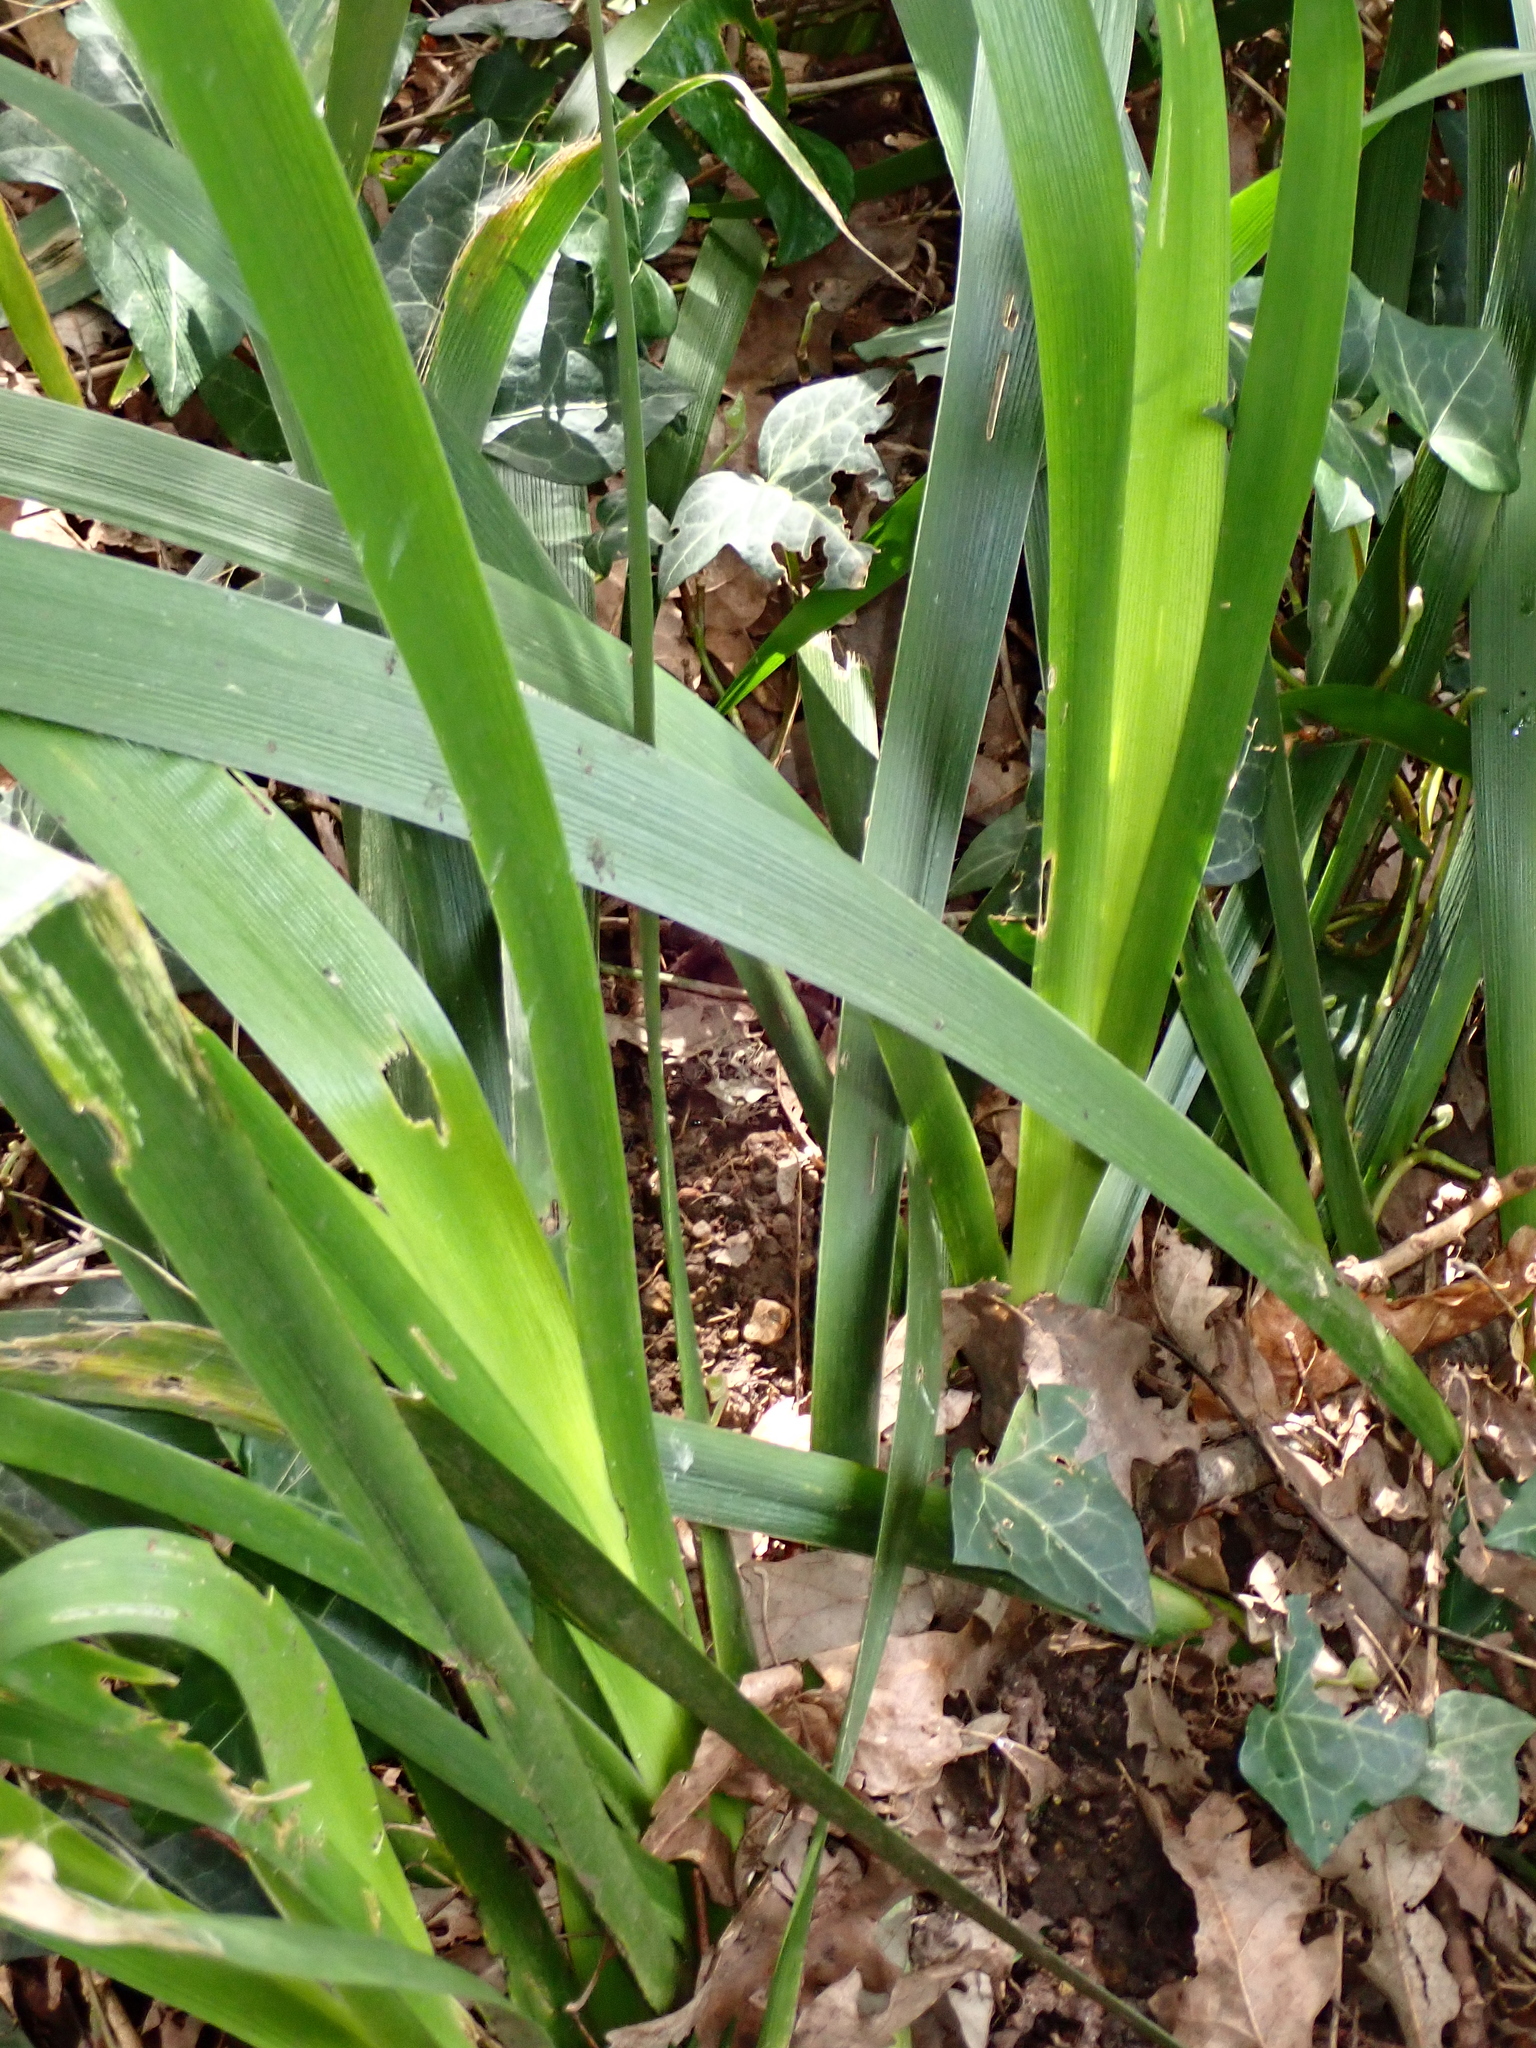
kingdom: Plantae
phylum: Tracheophyta
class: Liliopsida
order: Asparagales
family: Iridaceae
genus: Iris
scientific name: Iris foetidissima
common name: Stinking iris
